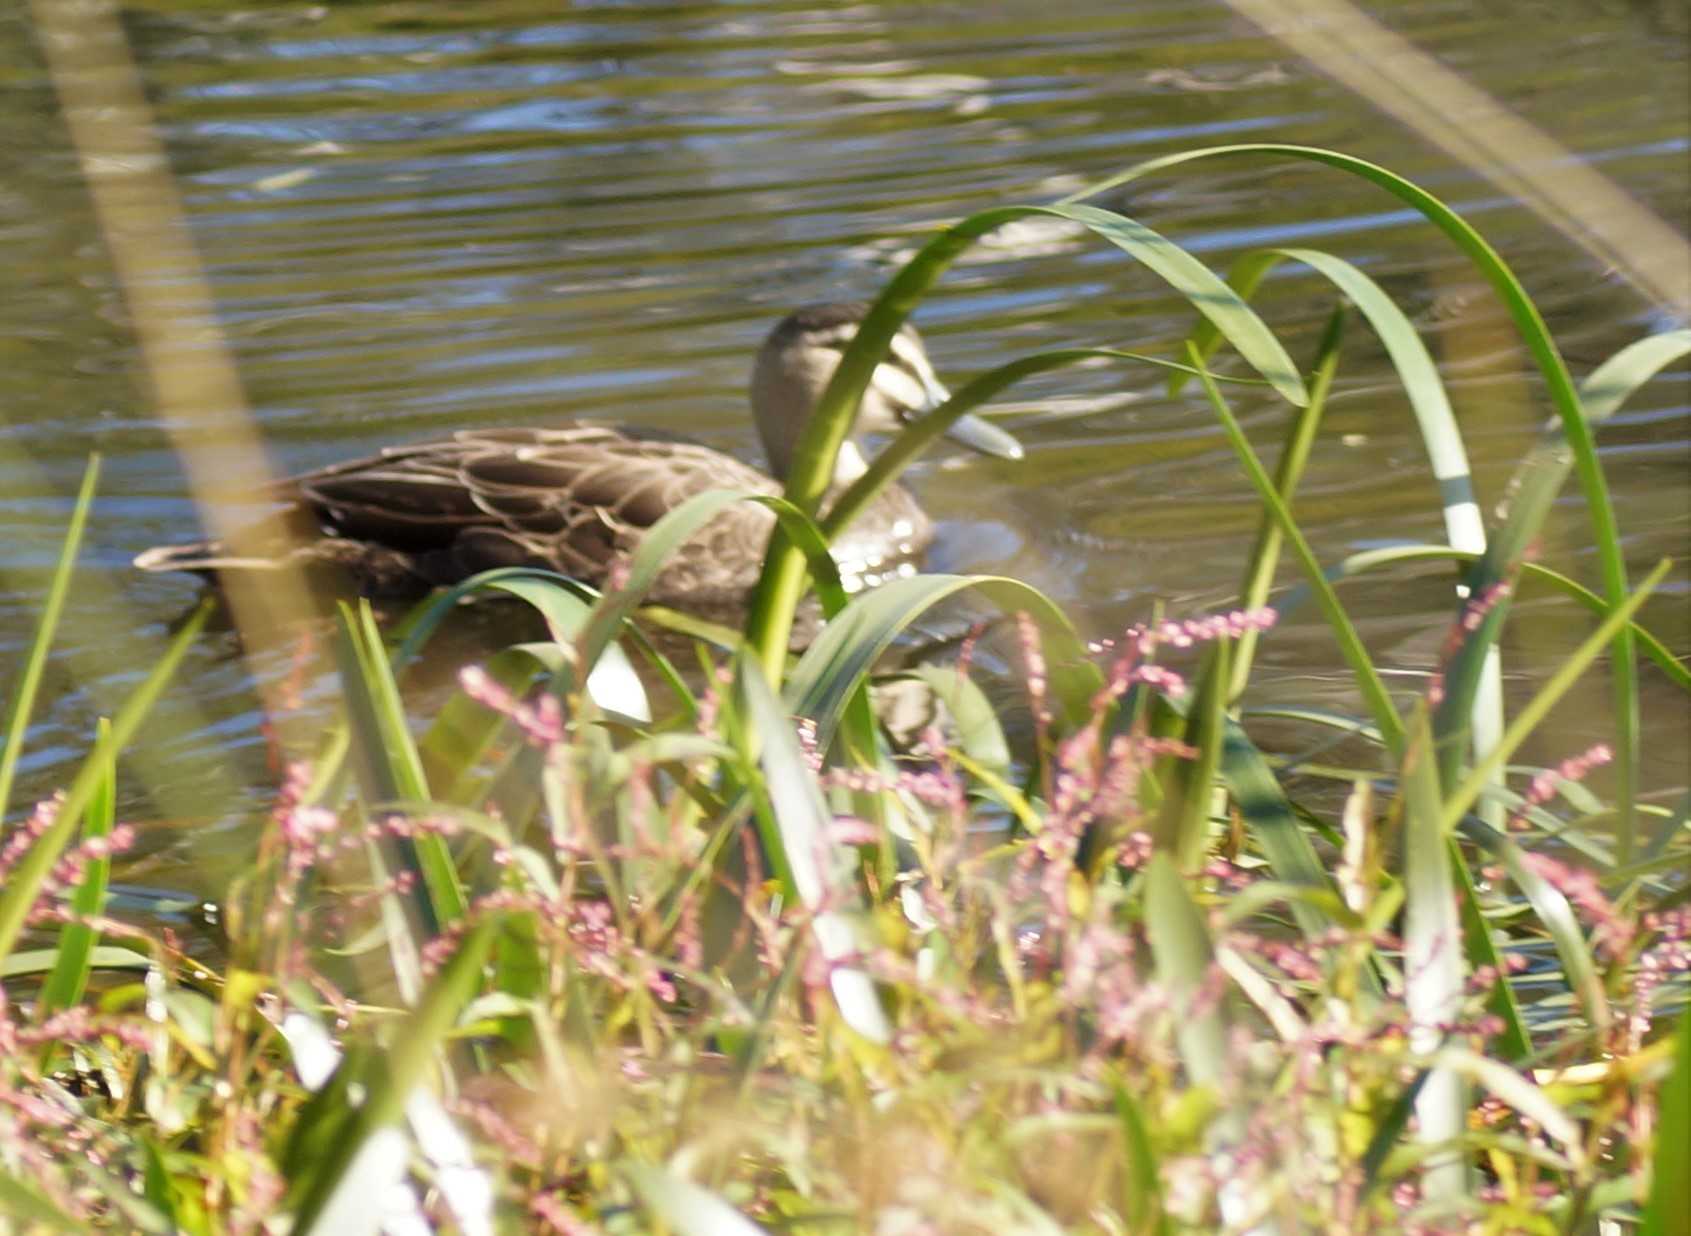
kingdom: Animalia
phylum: Chordata
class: Aves
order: Anseriformes
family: Anatidae
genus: Anas
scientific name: Anas superciliosa
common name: Pacific black duck
